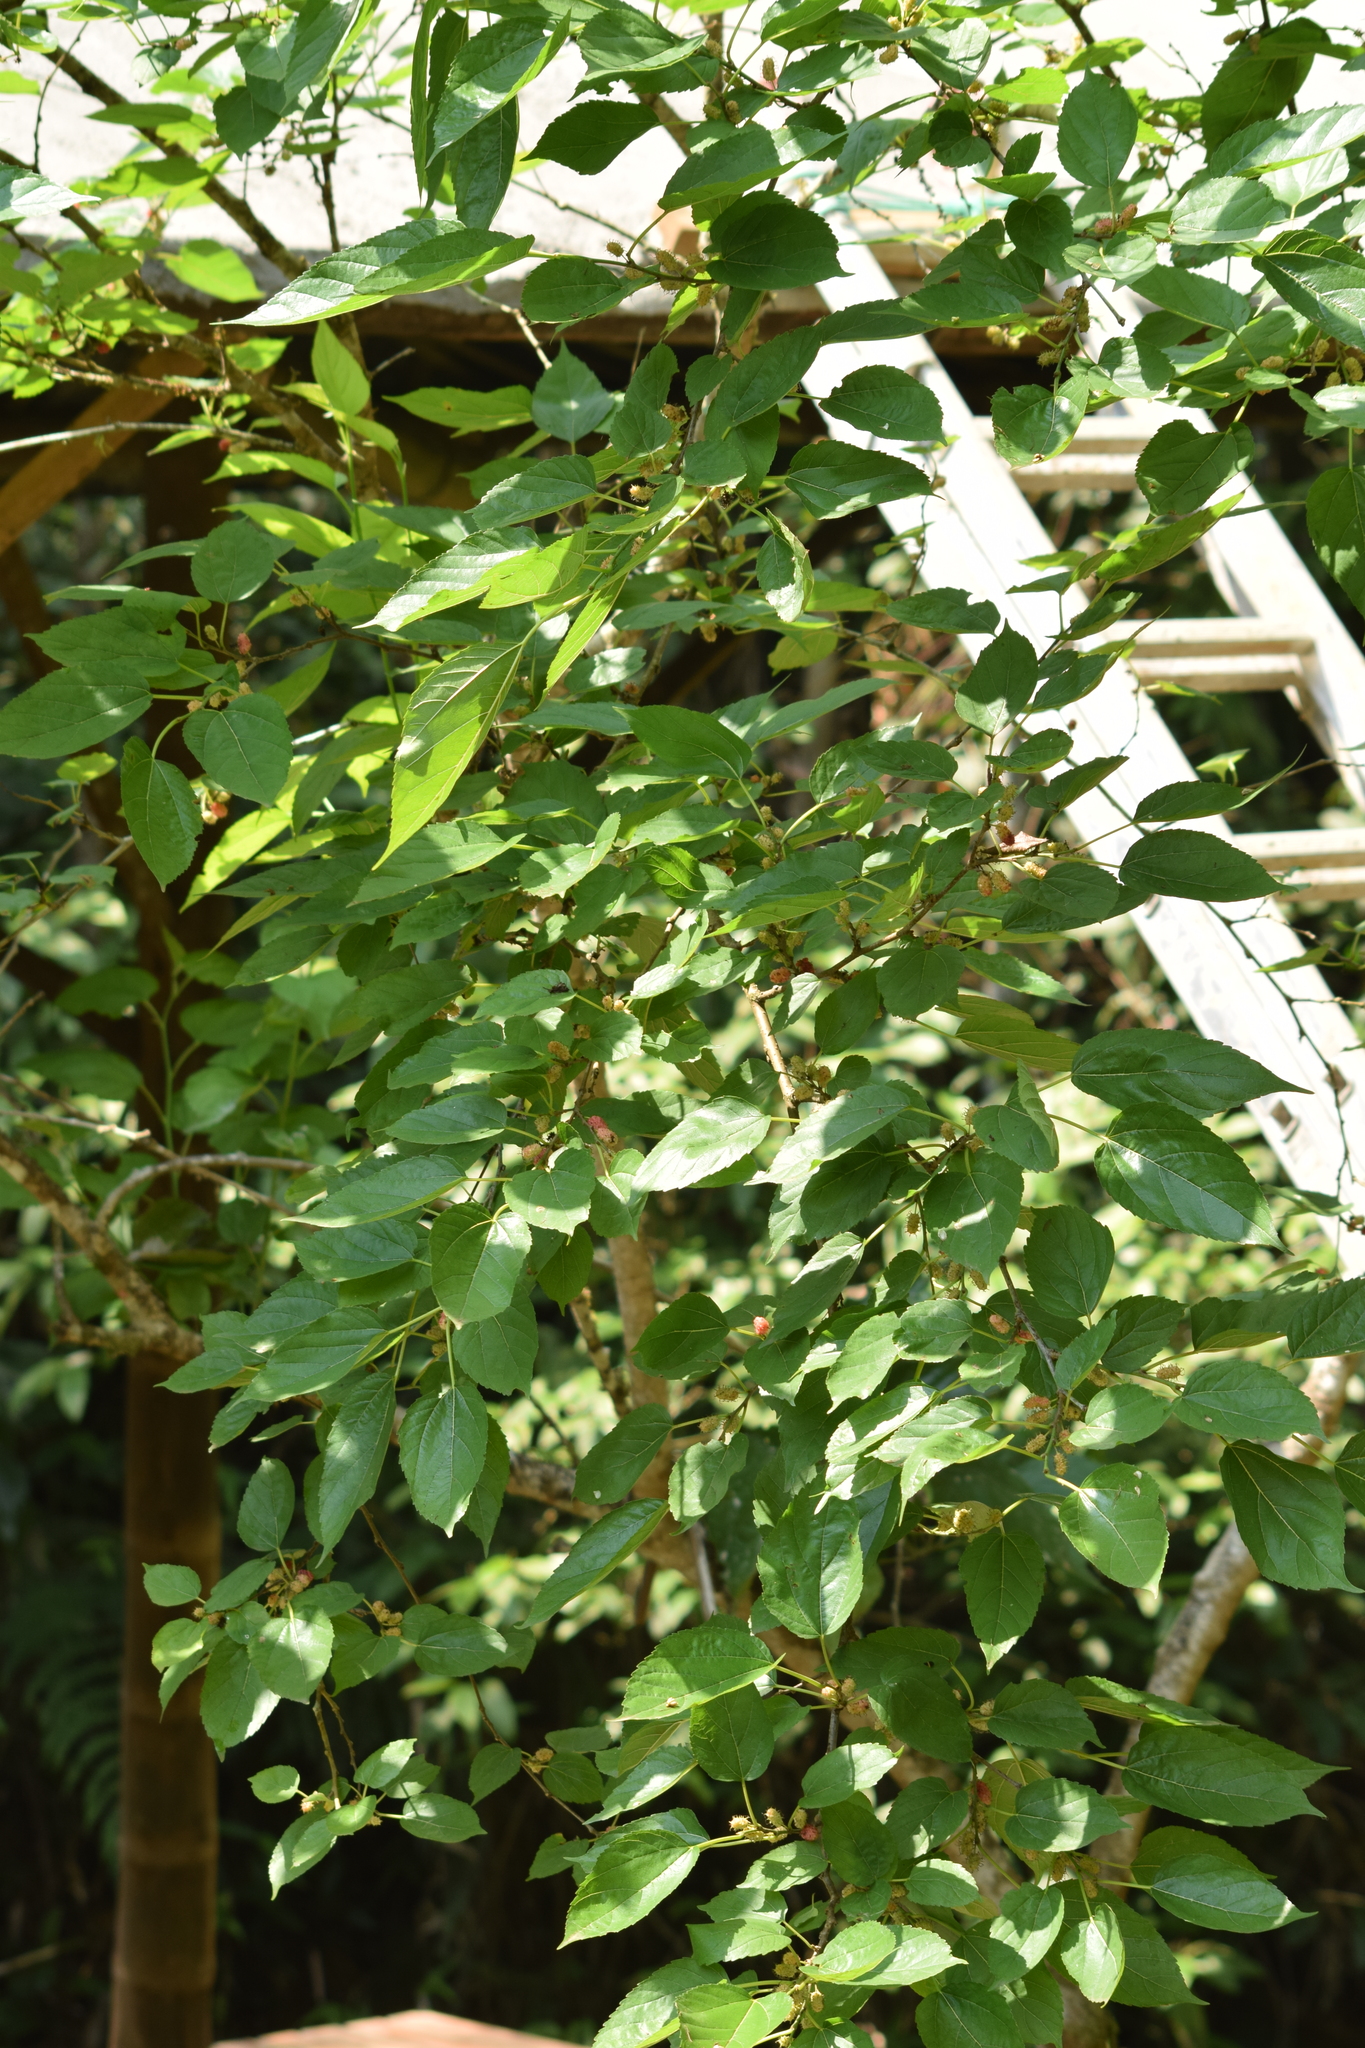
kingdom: Plantae
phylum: Tracheophyta
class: Magnoliopsida
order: Rosales
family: Moraceae
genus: Morus
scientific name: Morus nigra
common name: Black mulberry
